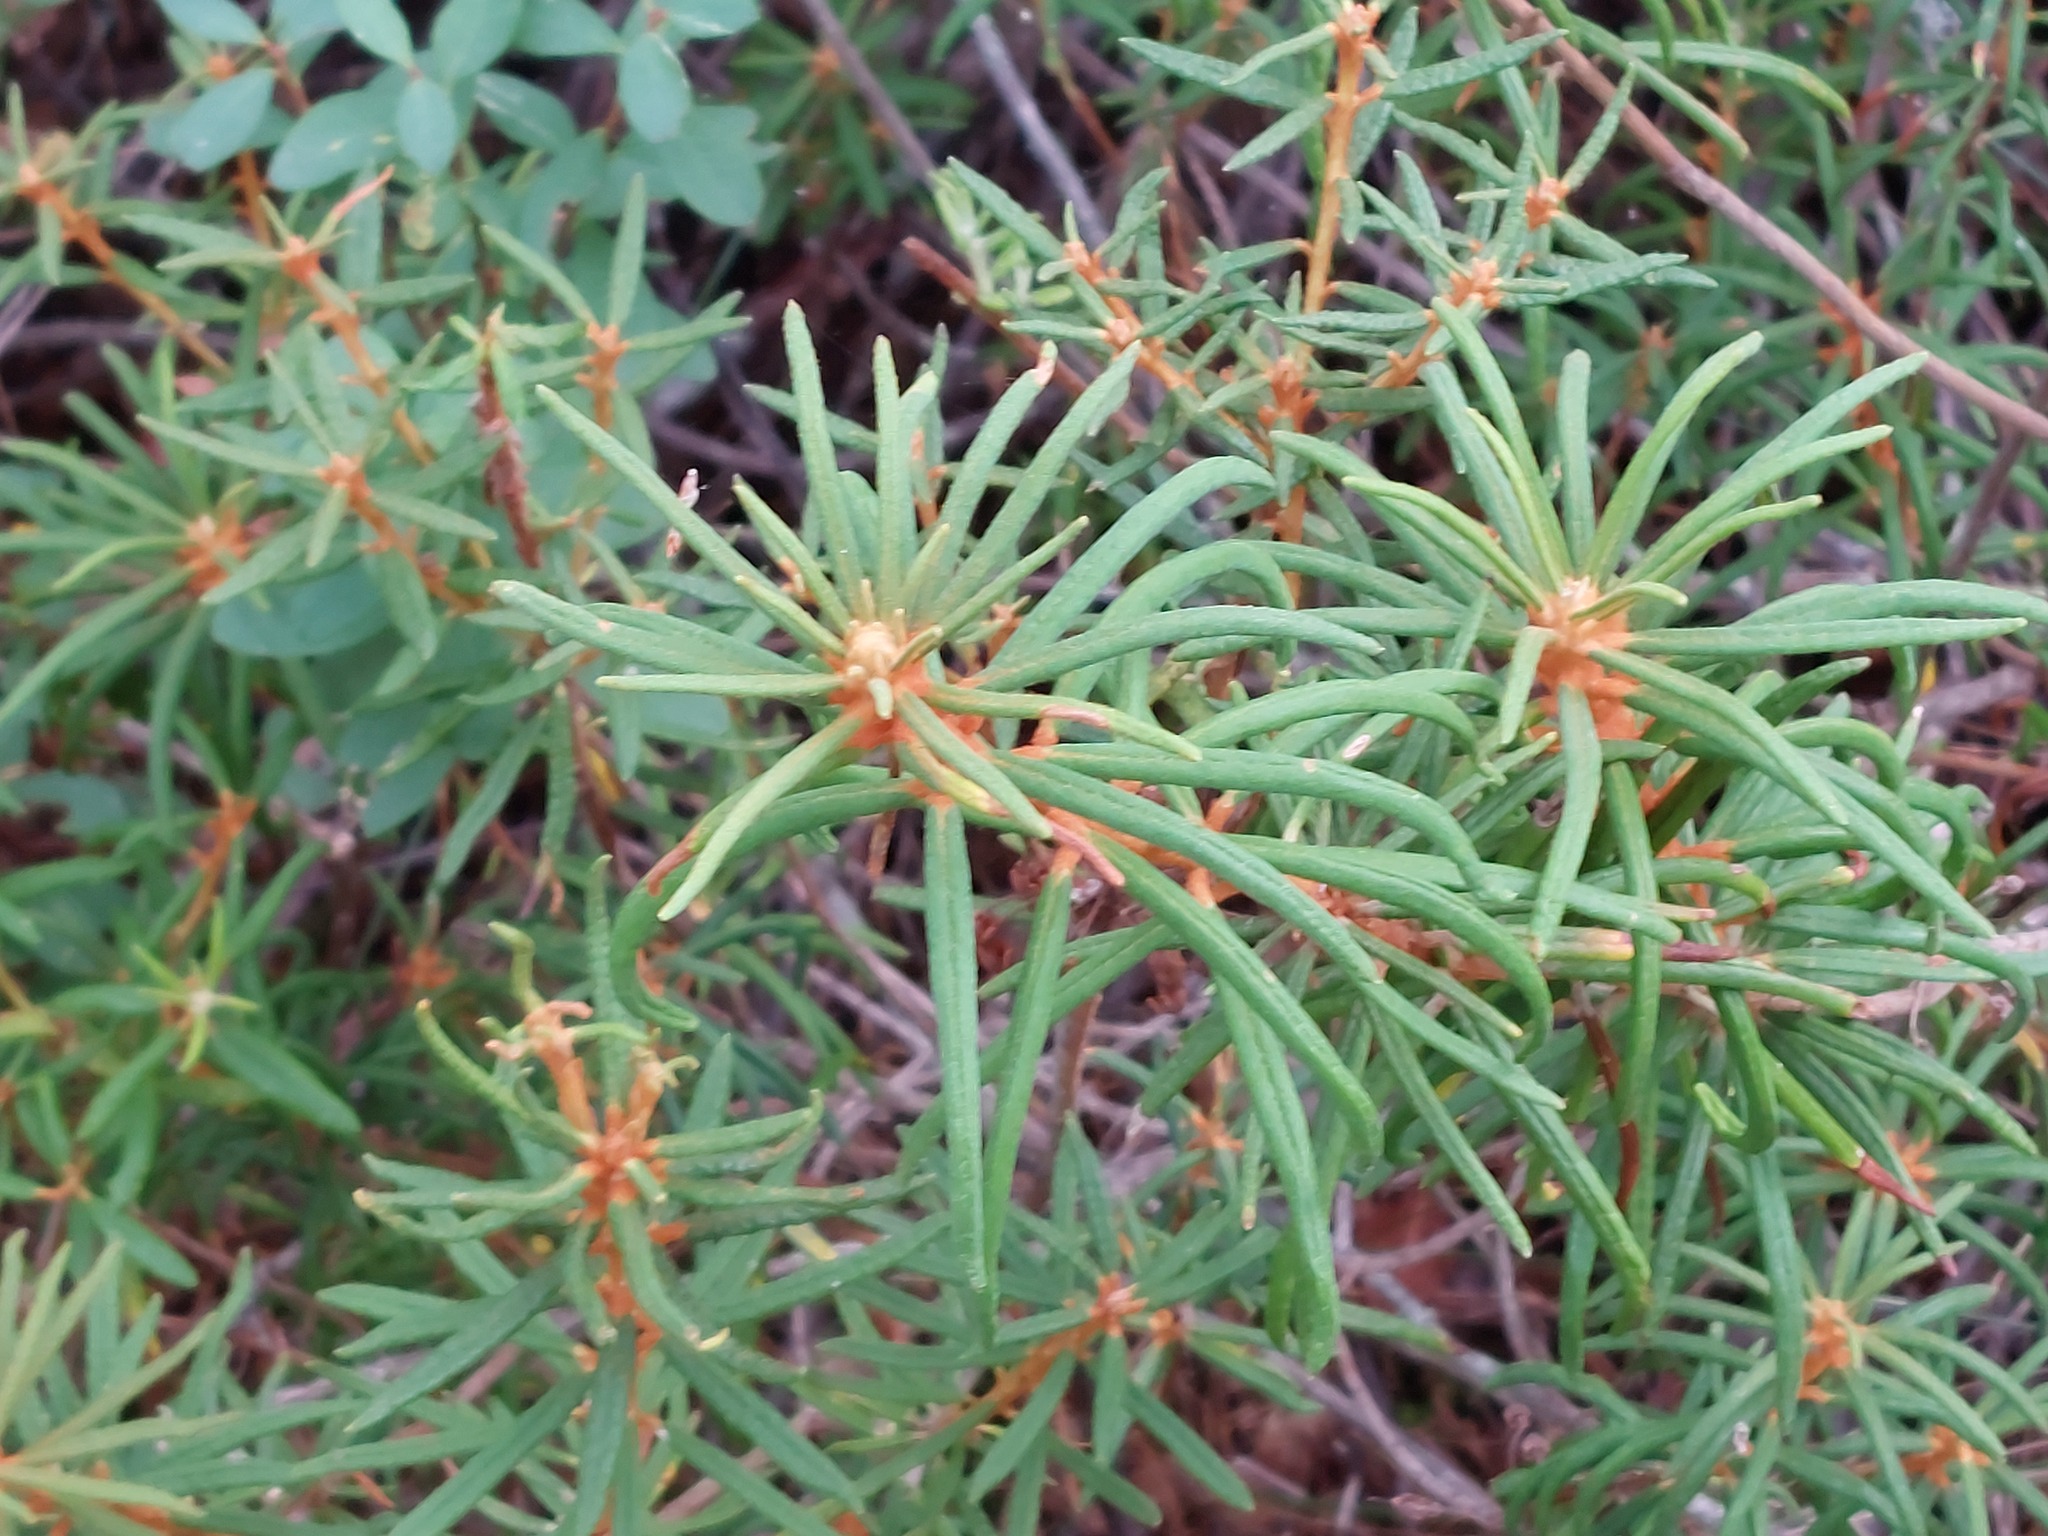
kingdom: Plantae
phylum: Tracheophyta
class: Magnoliopsida
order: Ericales
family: Ericaceae
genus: Rhododendron
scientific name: Rhododendron tomentosum
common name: Marsh labrador tea
